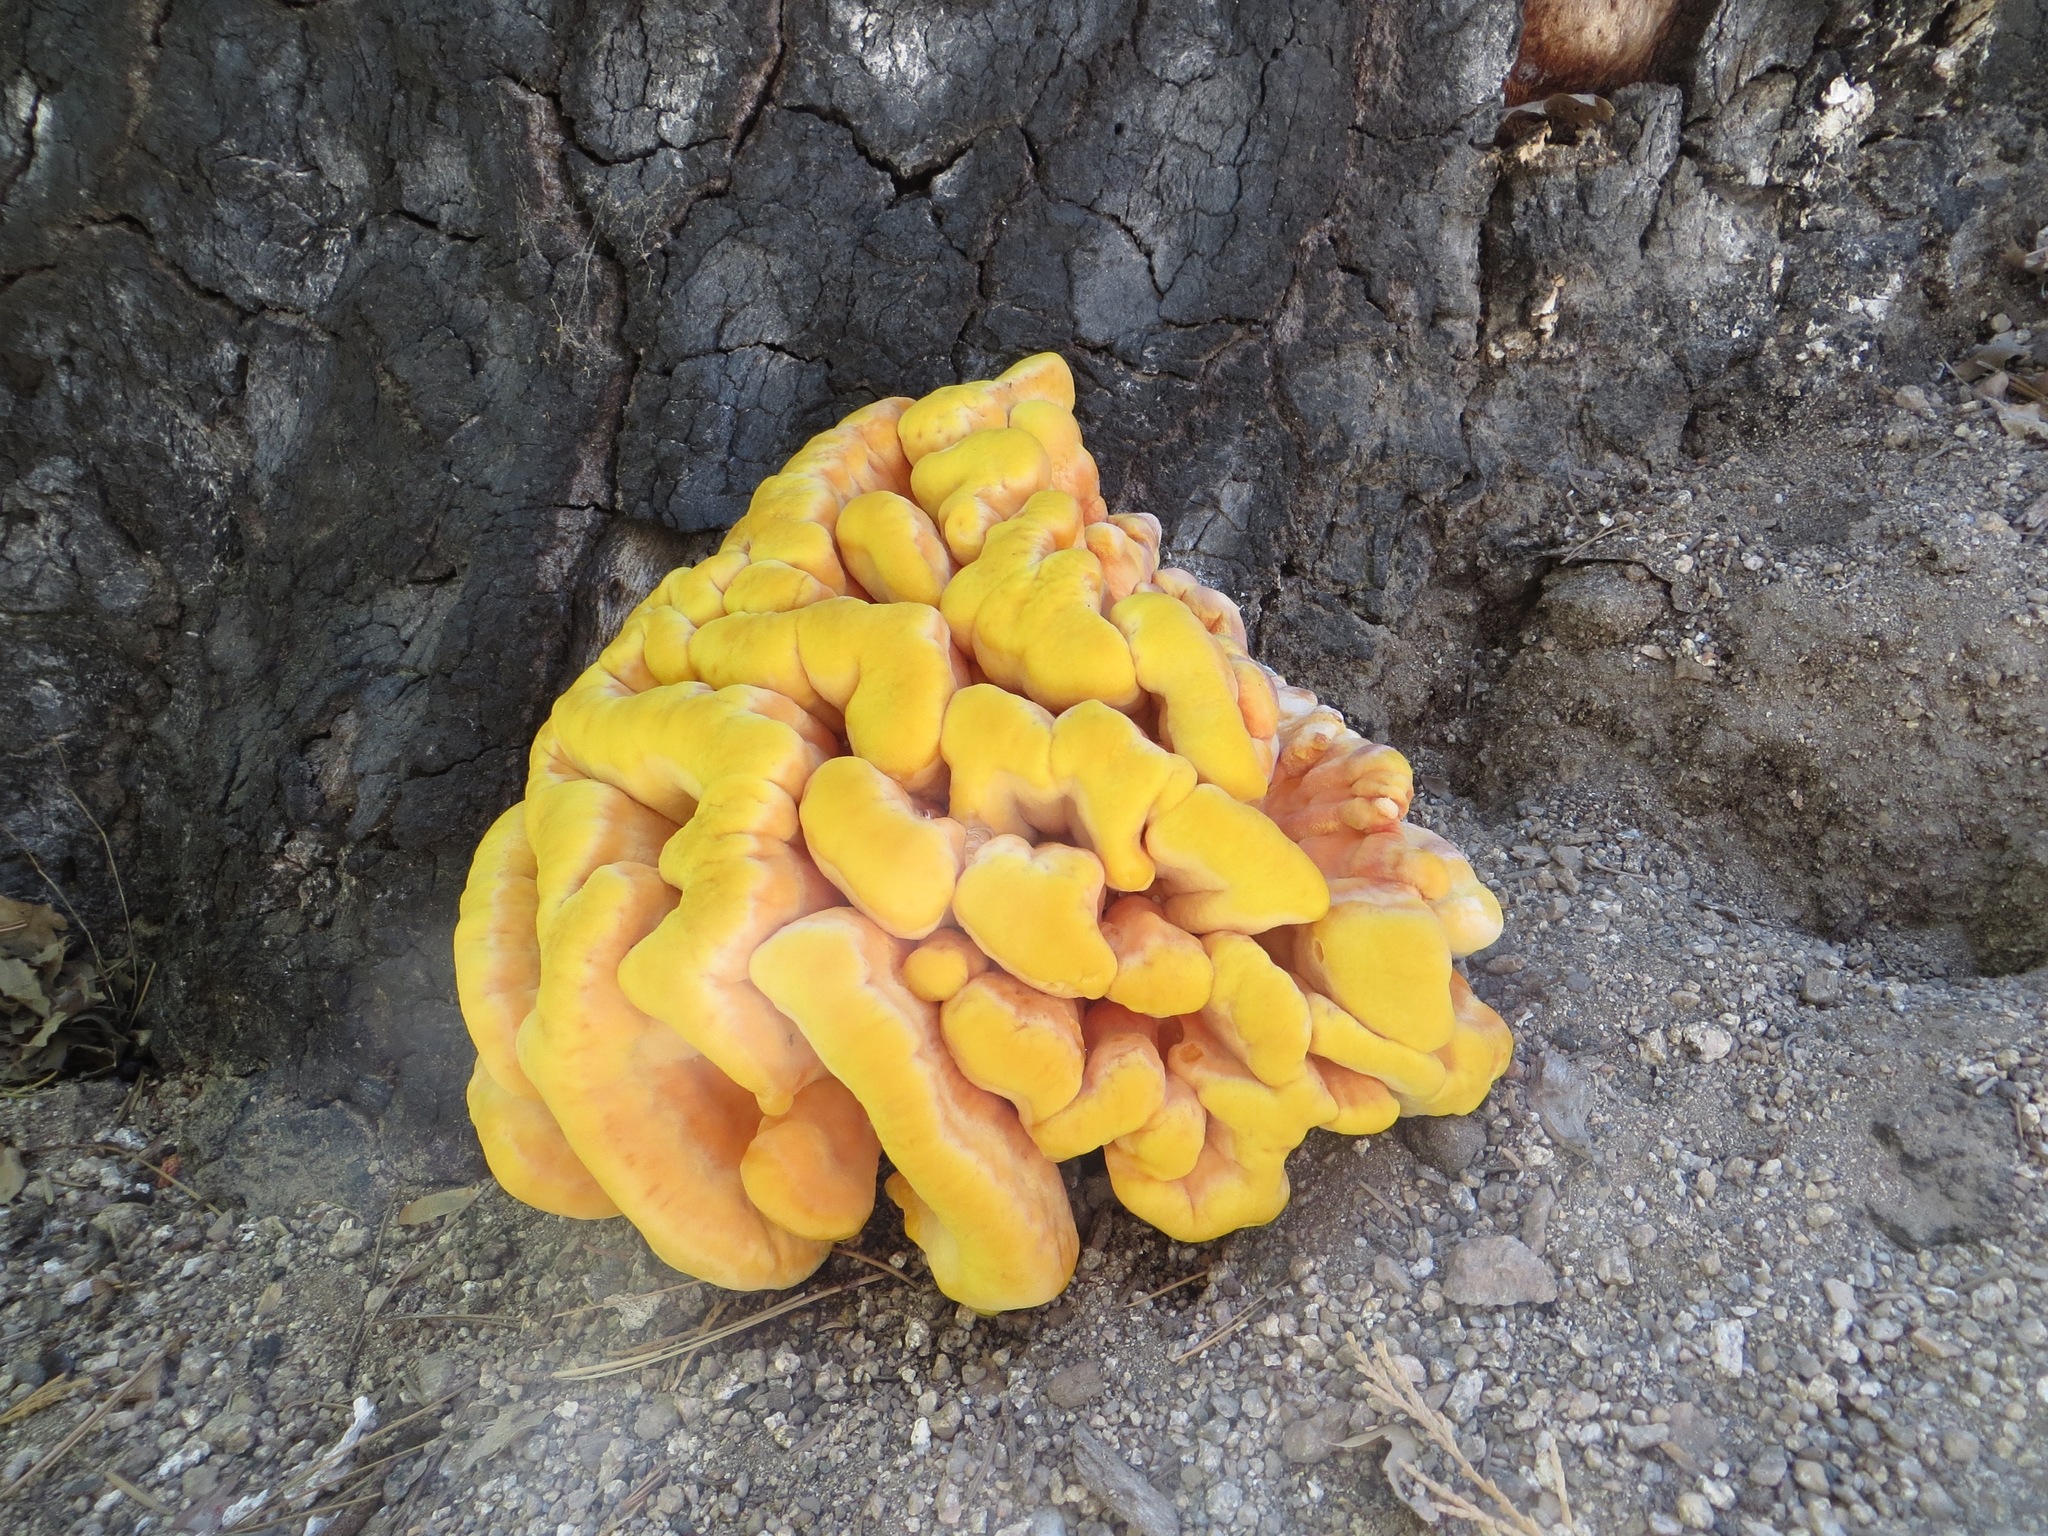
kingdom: Fungi
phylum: Basidiomycota
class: Agaricomycetes
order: Polyporales
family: Laetiporaceae
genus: Laetiporus
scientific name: Laetiporus conifericola
